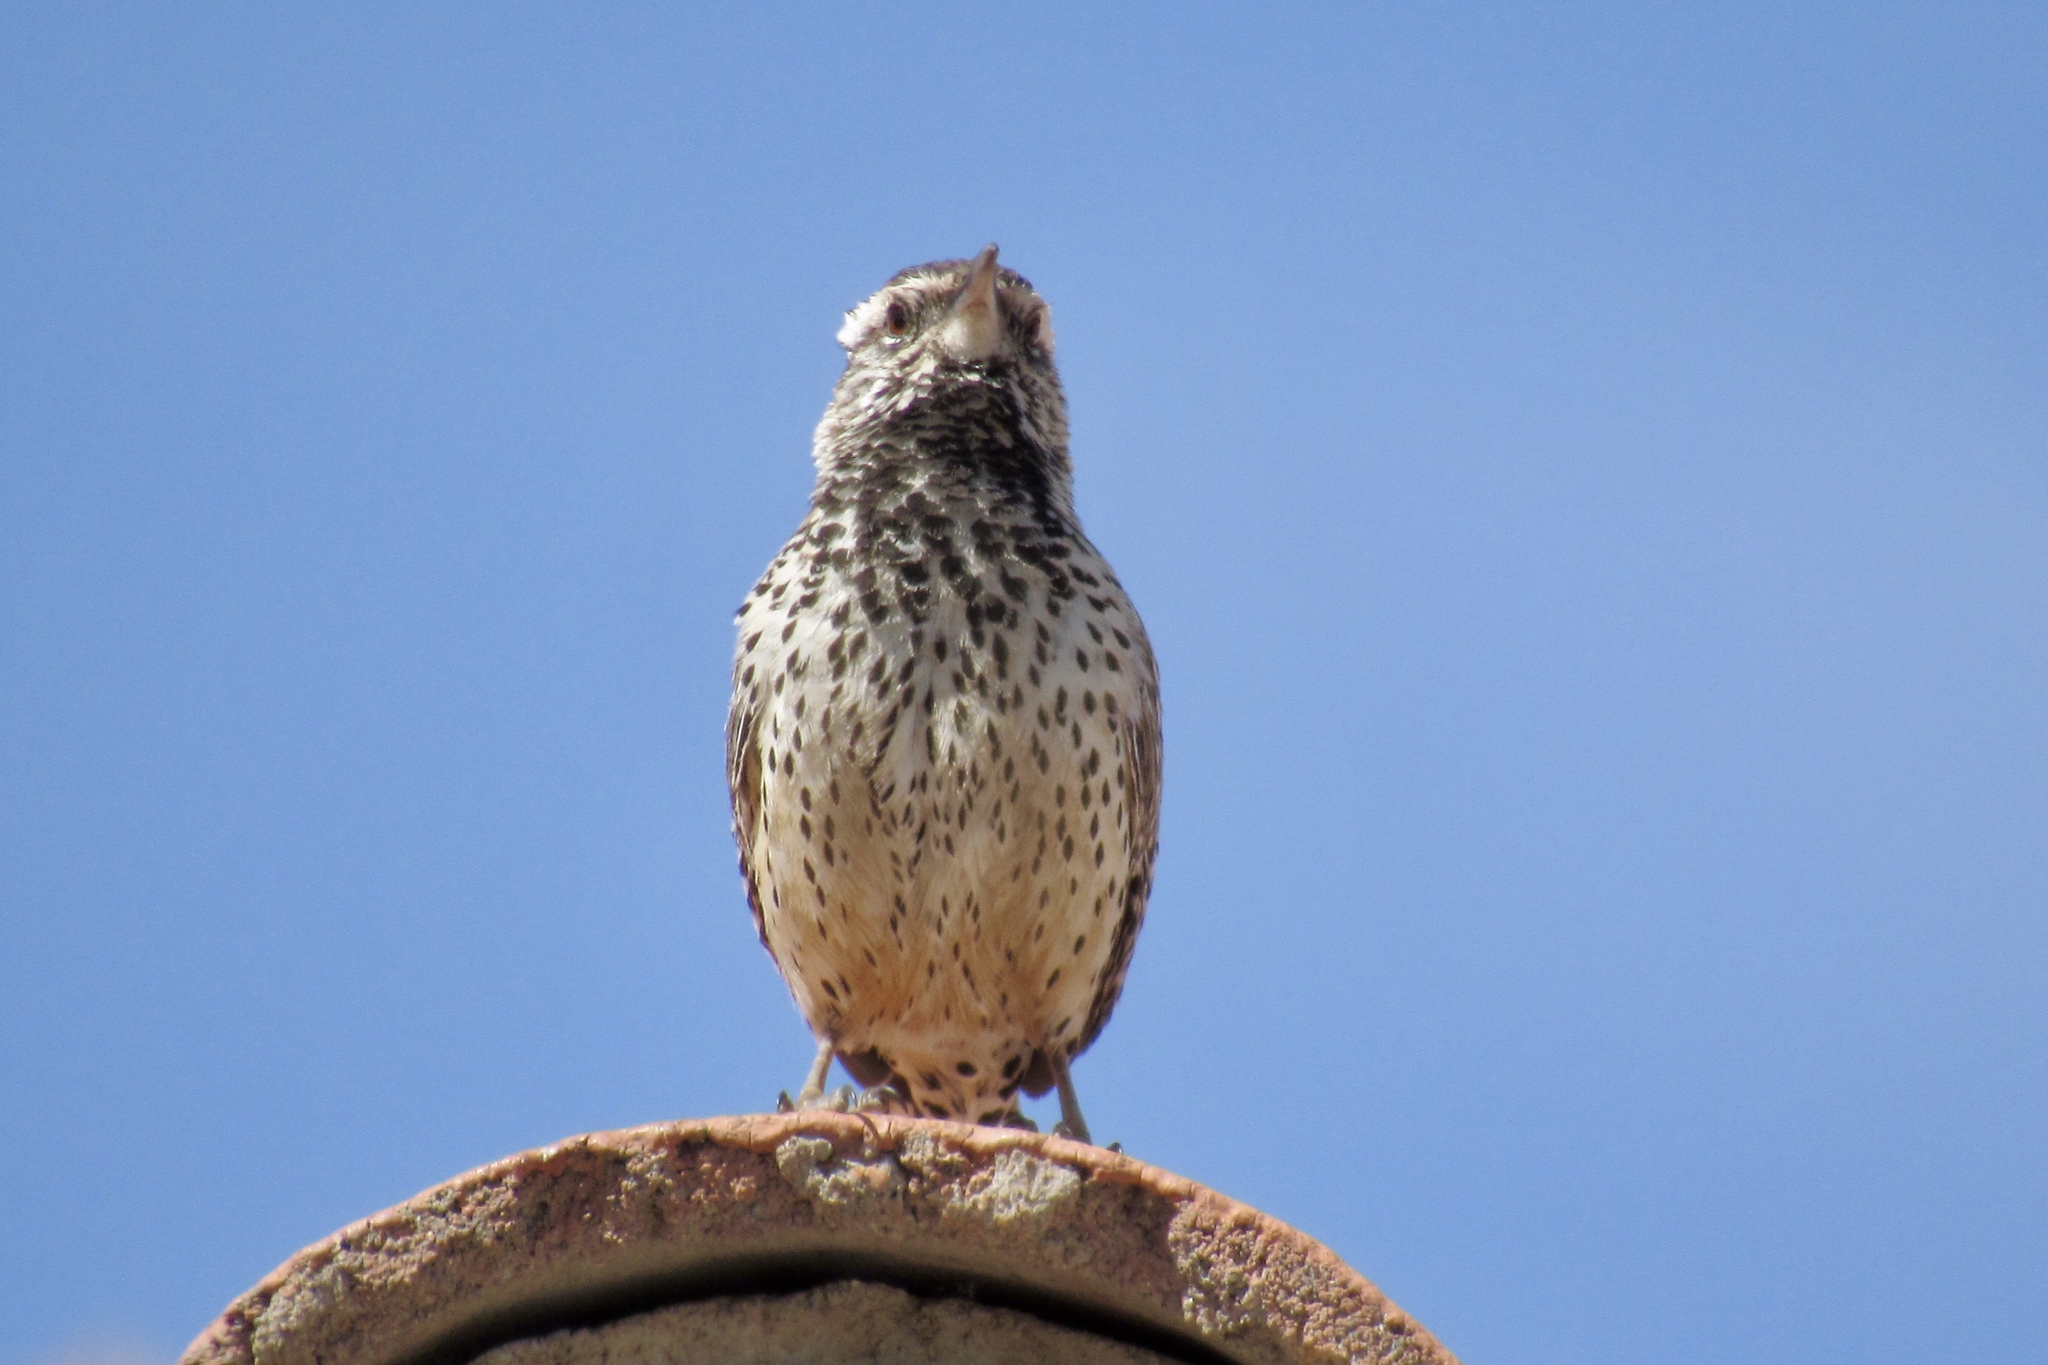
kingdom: Animalia
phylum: Chordata
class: Aves
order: Passeriformes
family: Troglodytidae
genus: Campylorhynchus
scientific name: Campylorhynchus brunneicapillus
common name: Cactus wren
